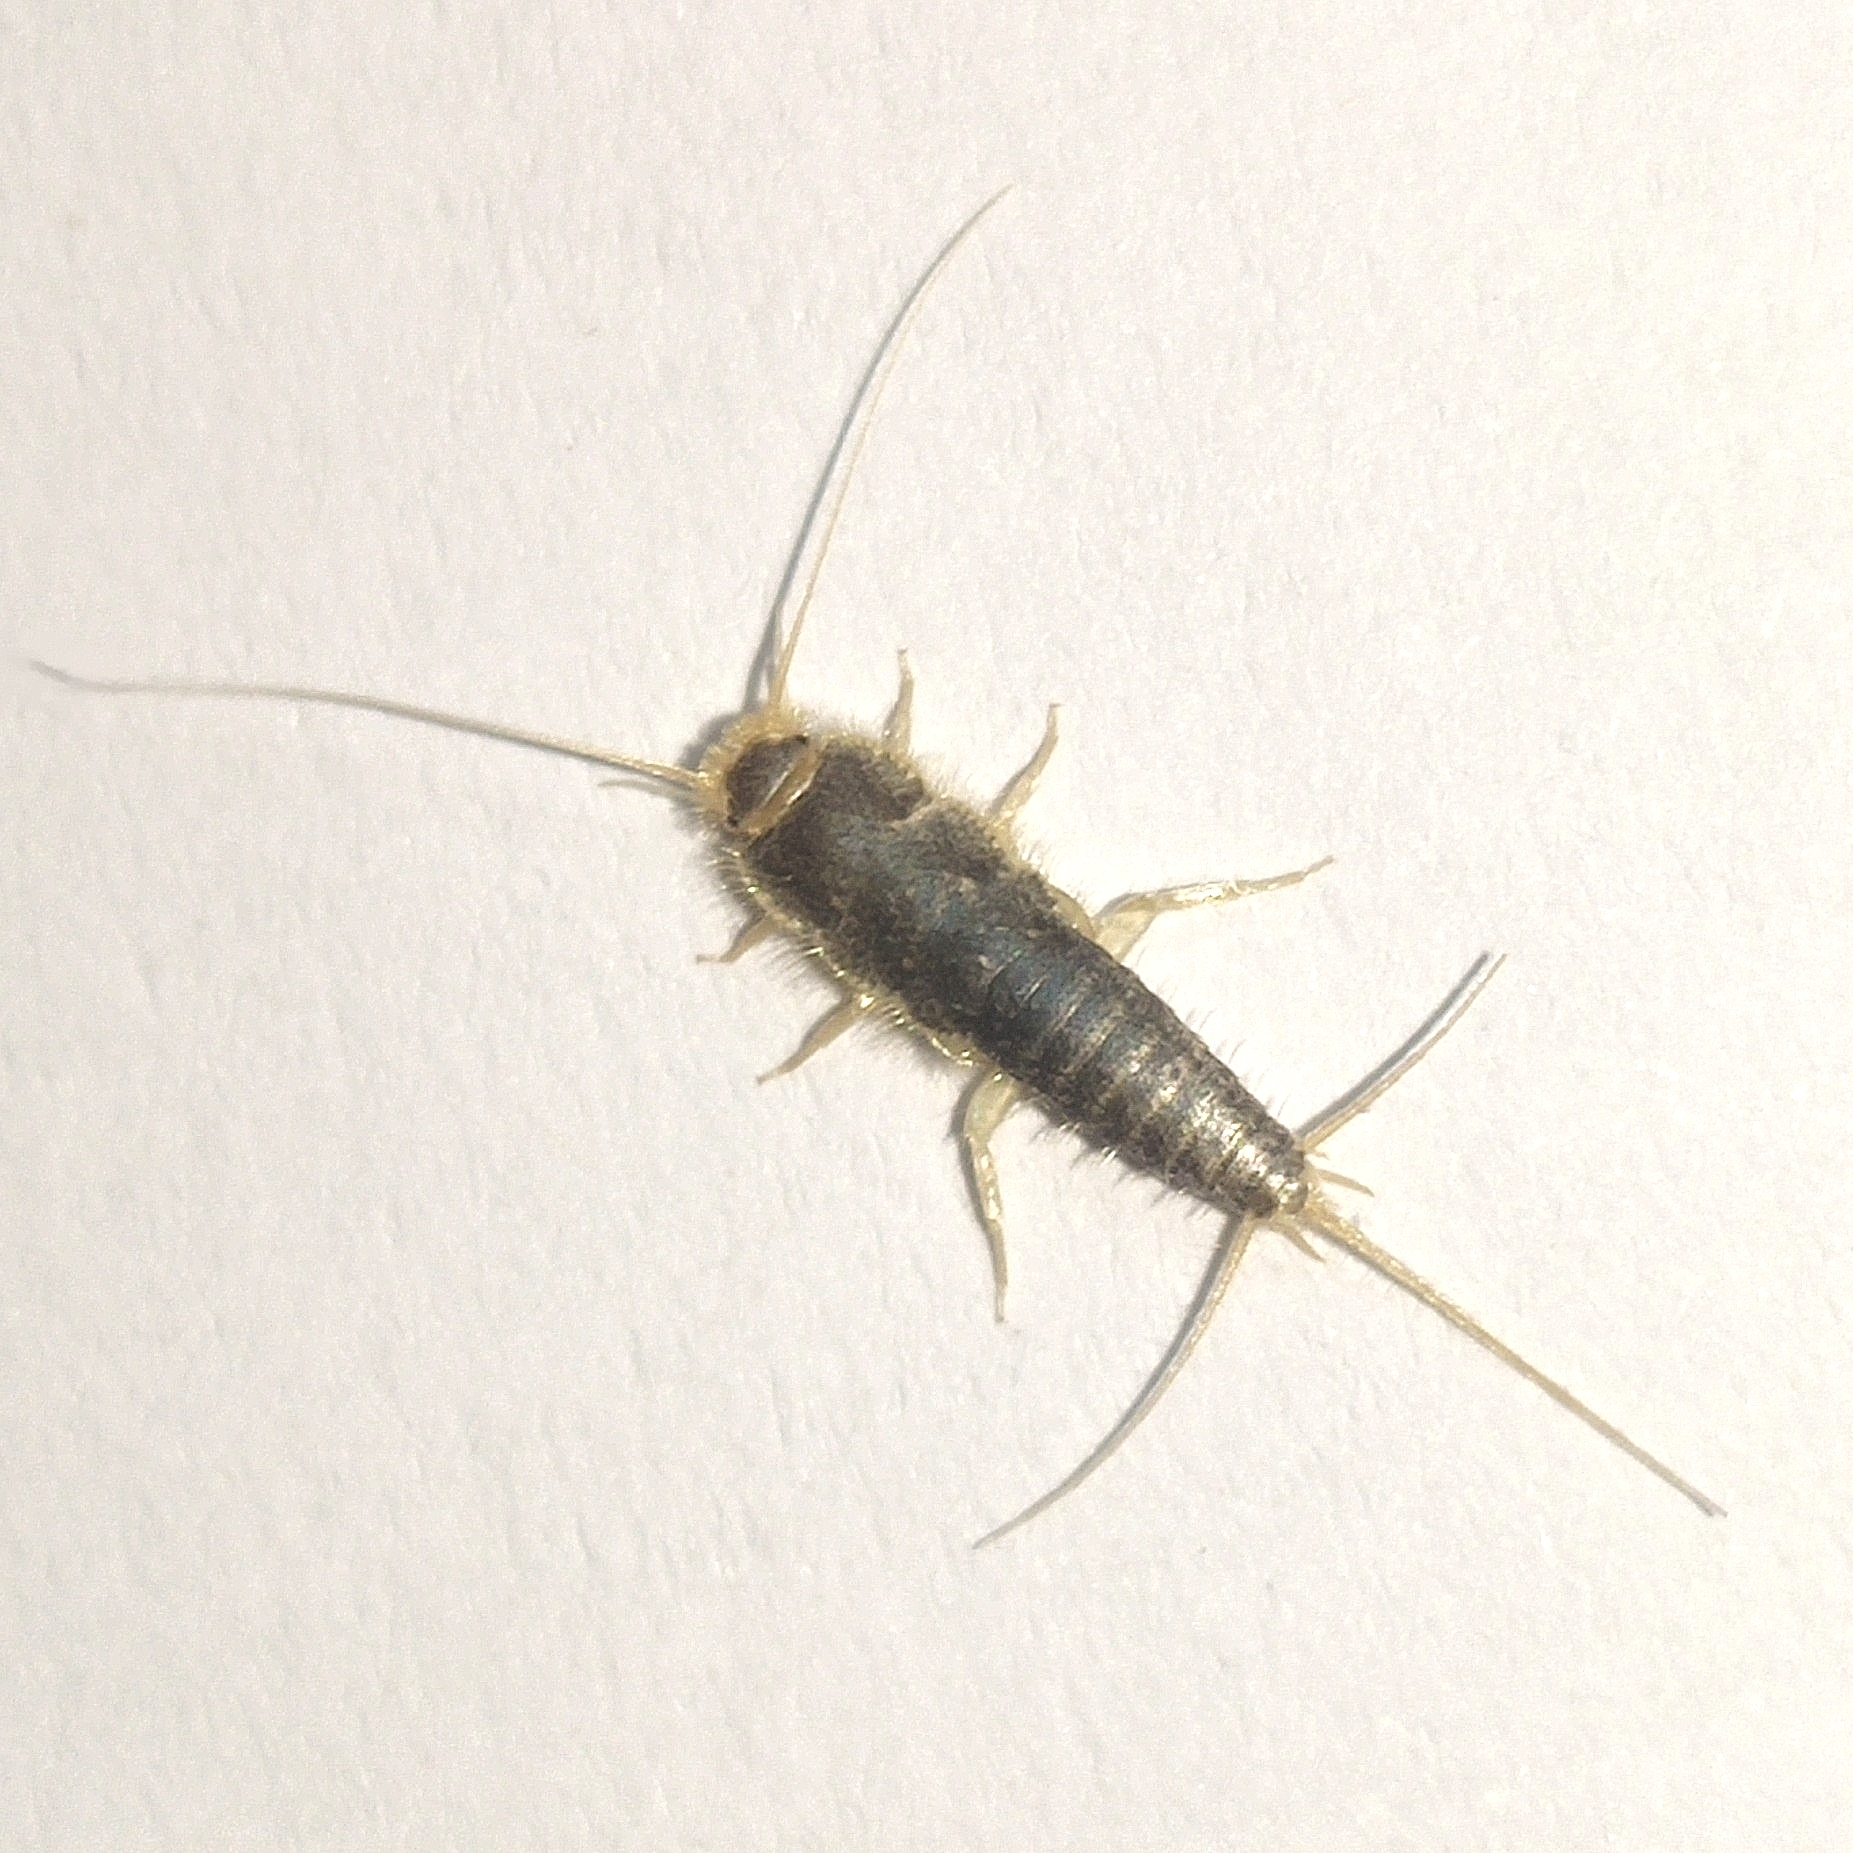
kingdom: Animalia
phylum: Arthropoda
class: Insecta
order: Zygentoma
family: Lepismatidae
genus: Ctenolepisma
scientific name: Ctenolepisma longicaudatum
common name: Silverfish
